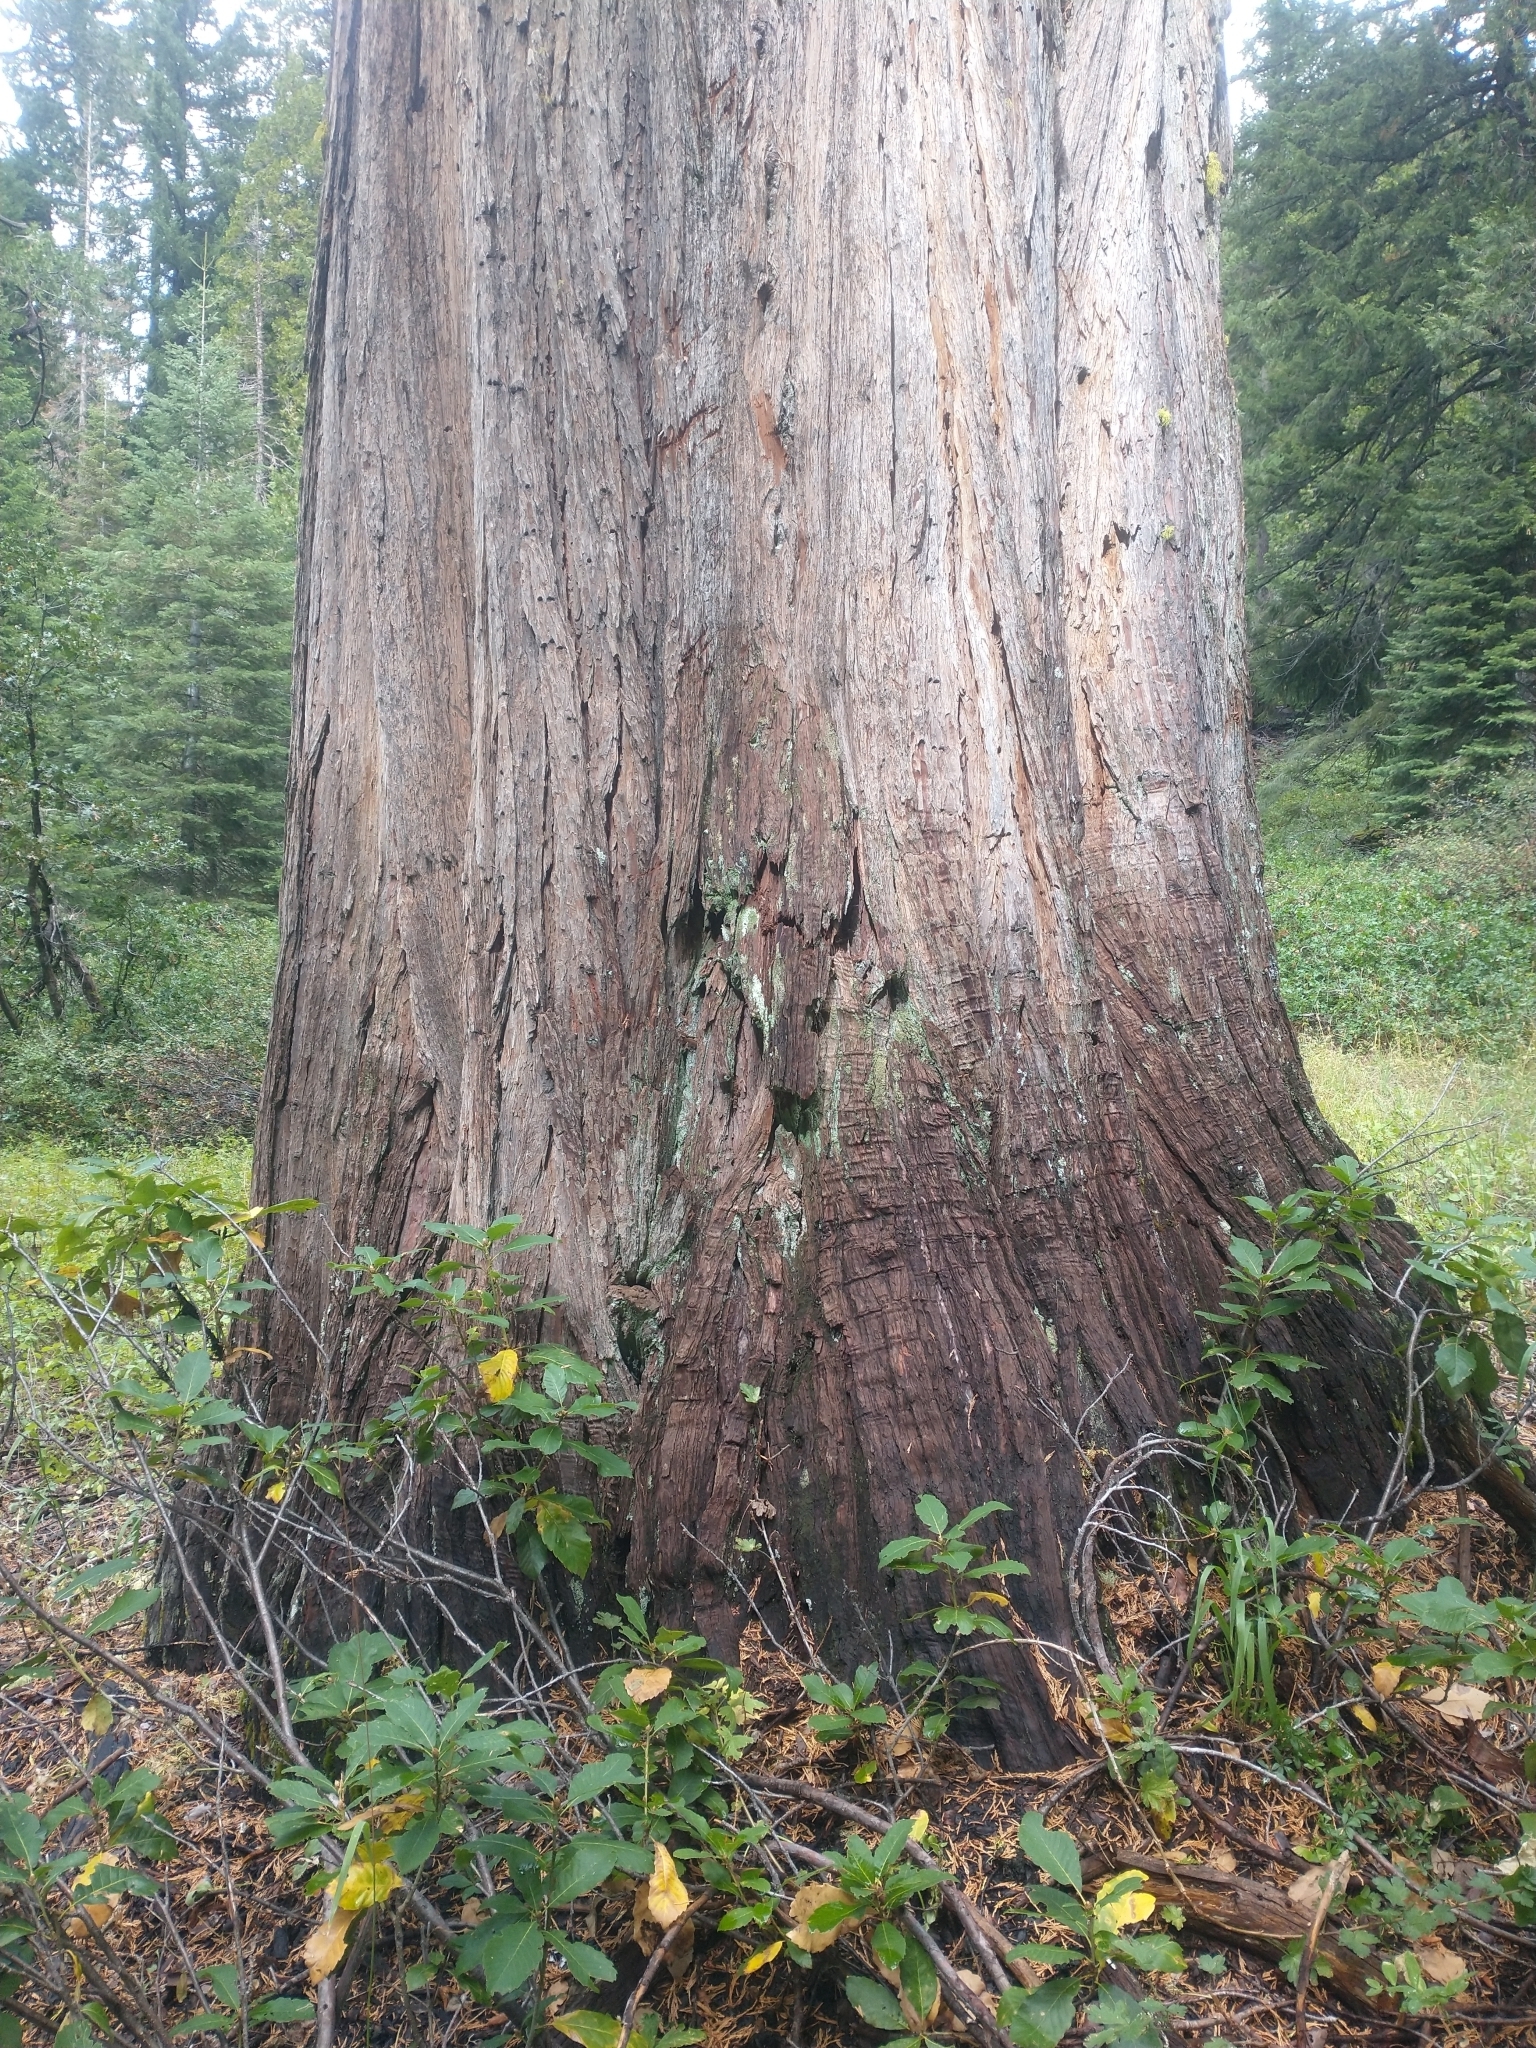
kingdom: Plantae
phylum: Tracheophyta
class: Magnoliopsida
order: Fagales
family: Fagaceae
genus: Quercus
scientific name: Quercus sadleriana
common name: Deer oak
